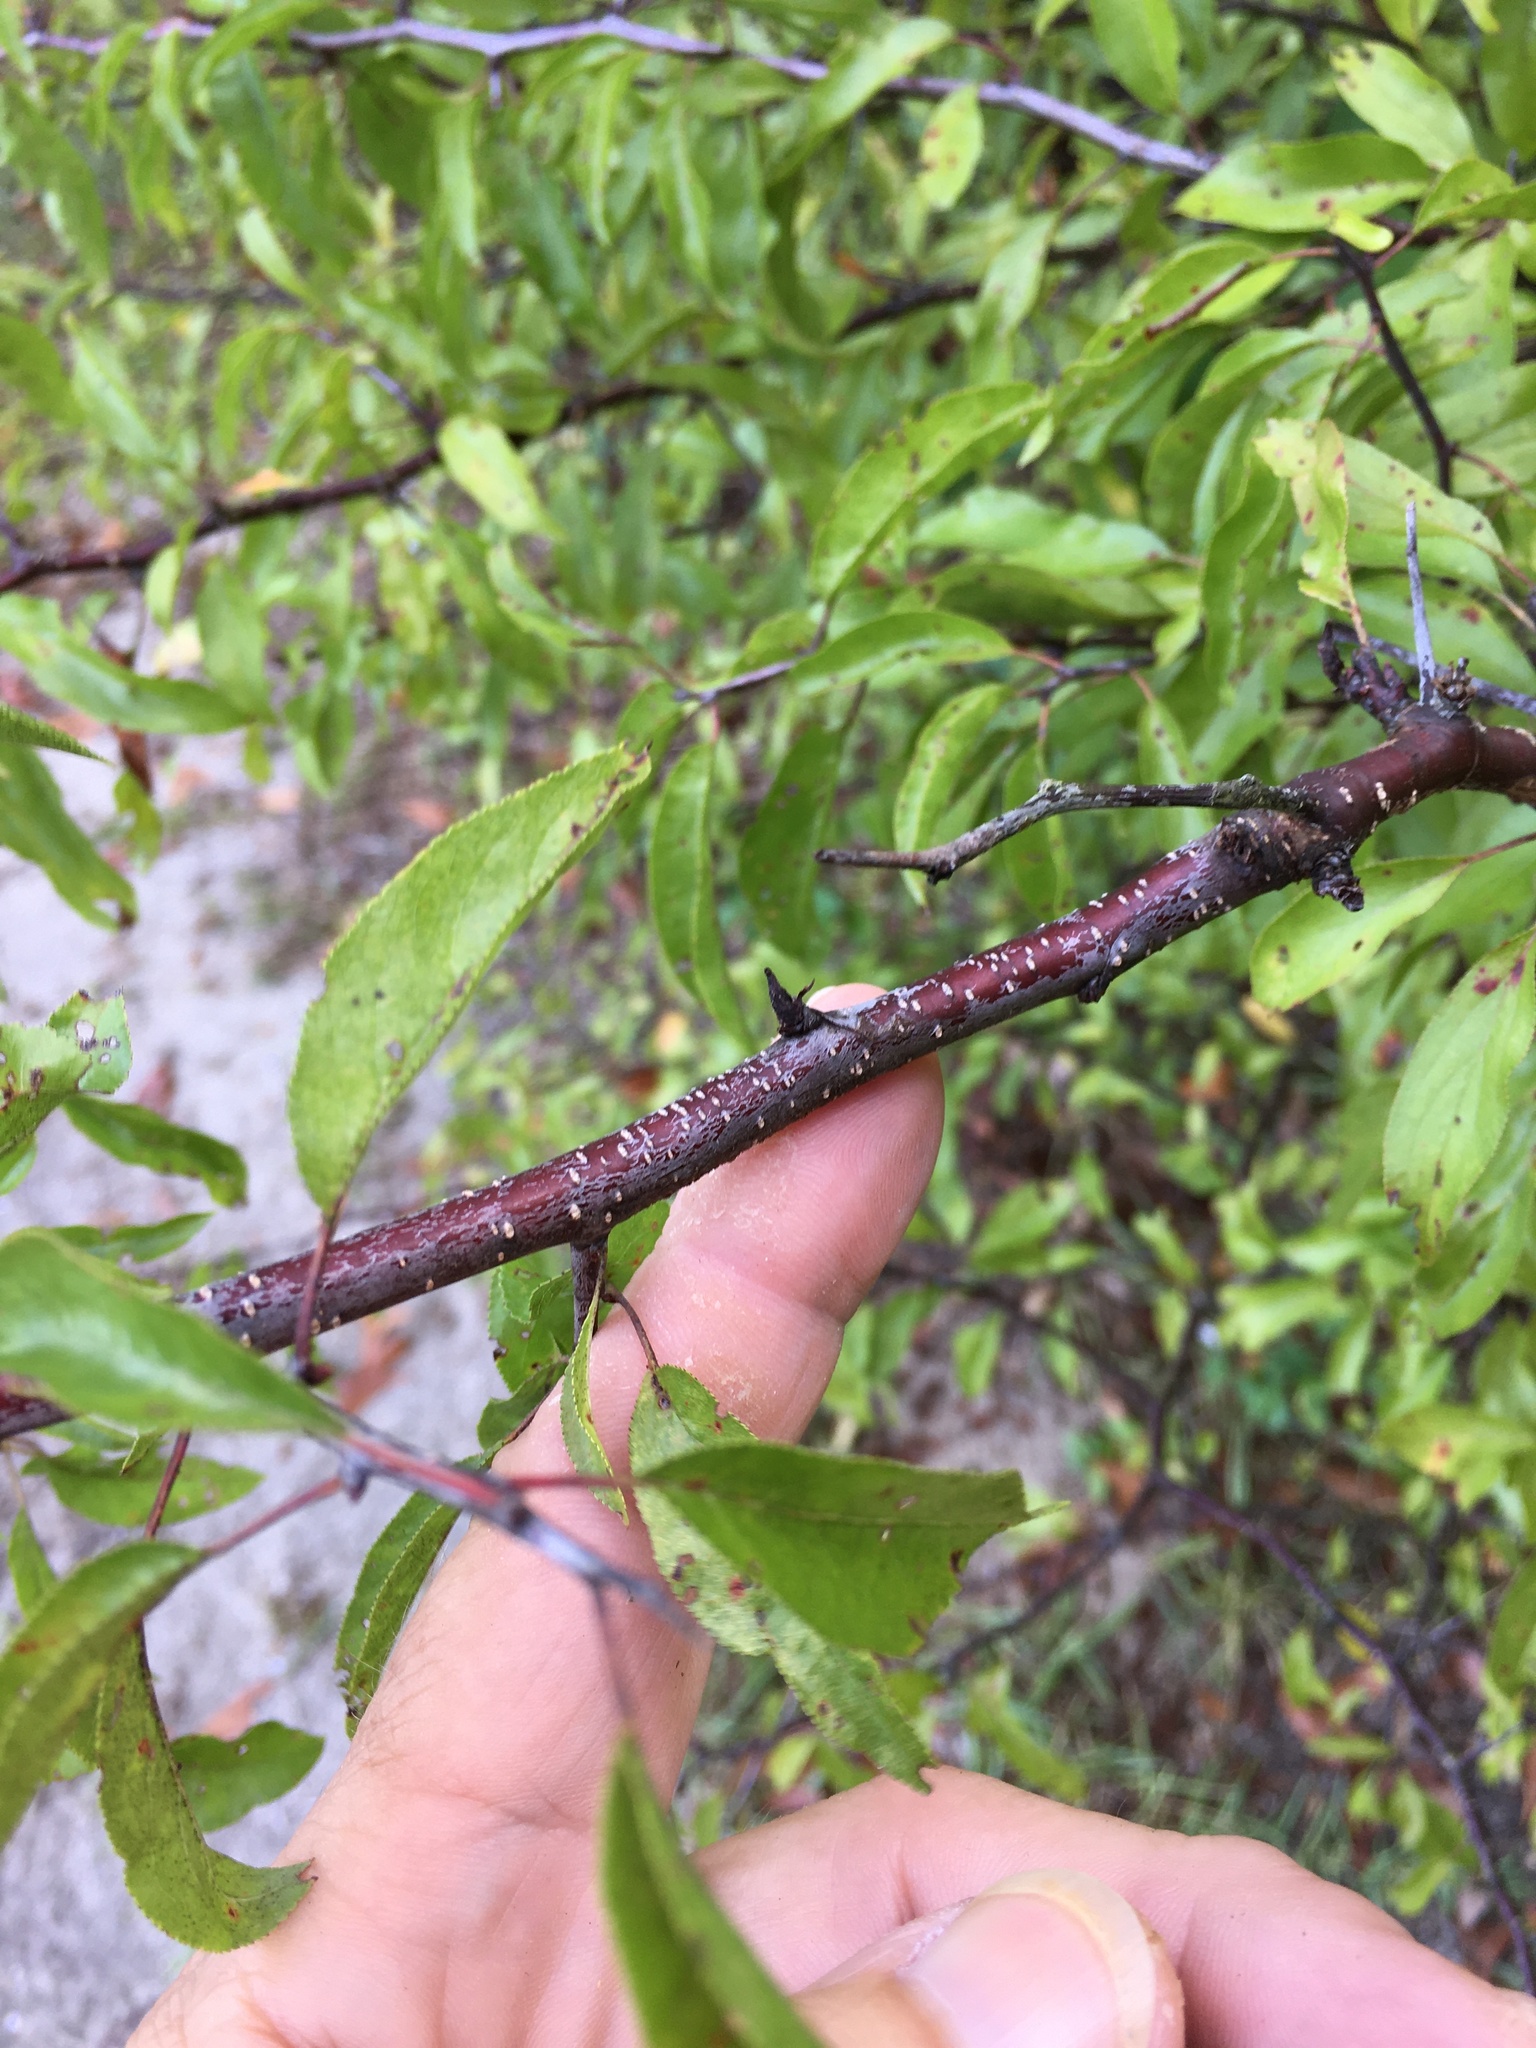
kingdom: Plantae
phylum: Tracheophyta
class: Magnoliopsida
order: Rosales
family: Rosaceae
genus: Prunus
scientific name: Prunus angustifolia
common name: Cherokee plum
